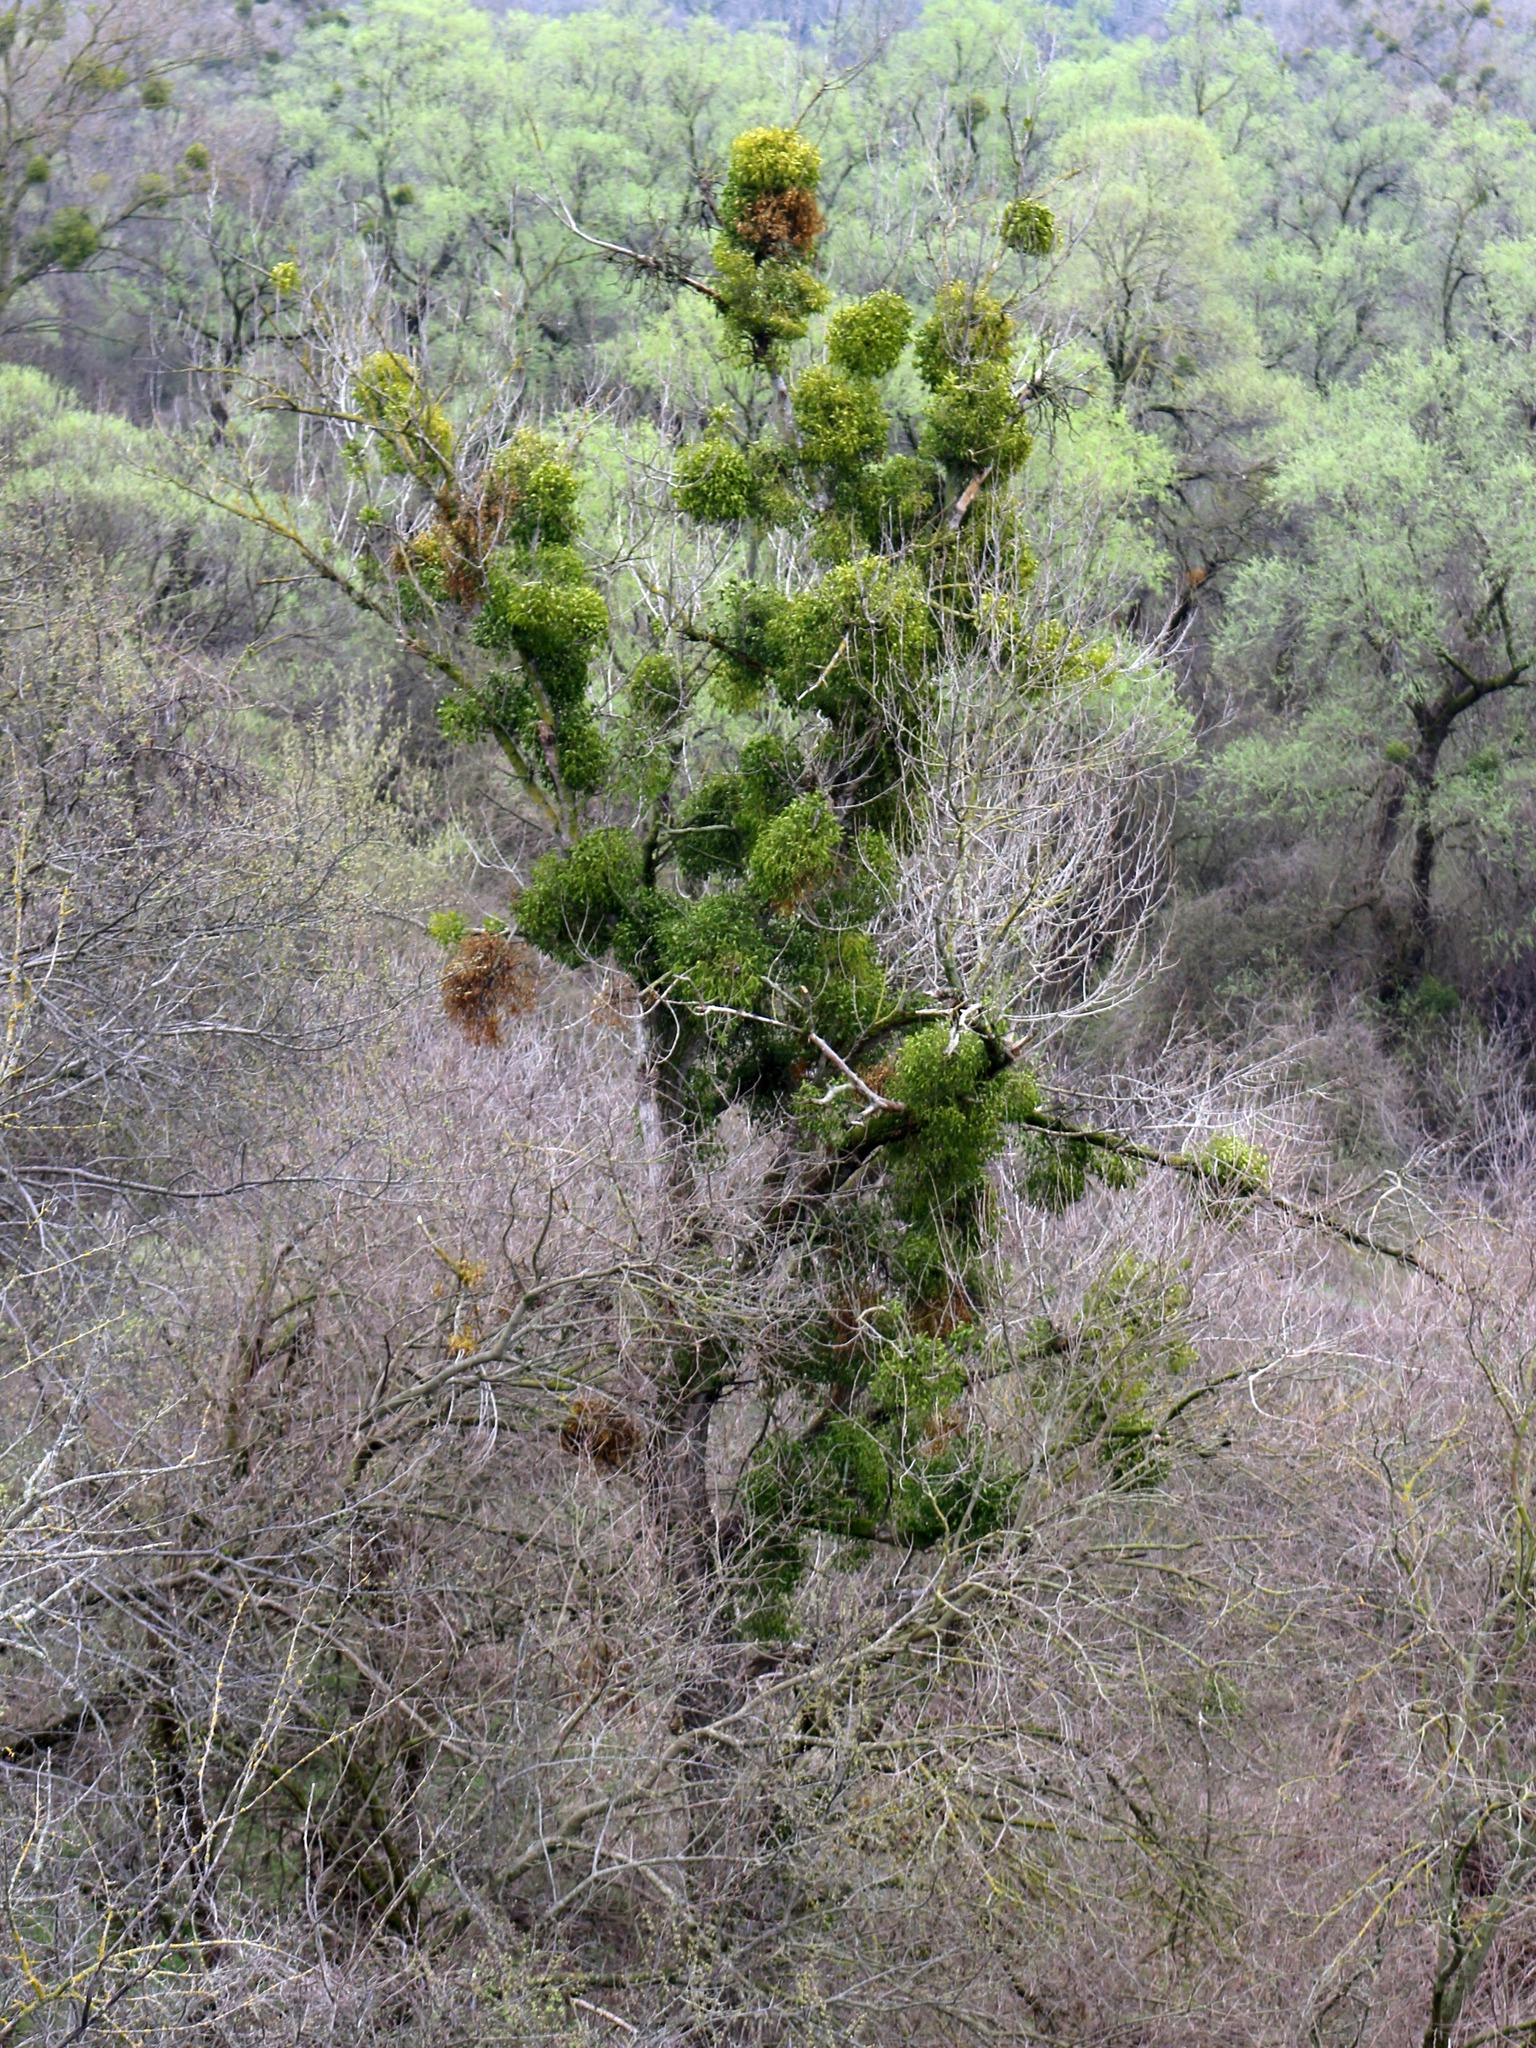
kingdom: Plantae
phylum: Tracheophyta
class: Magnoliopsida
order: Santalales
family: Viscaceae
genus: Viscum
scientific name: Viscum album
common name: Mistletoe
